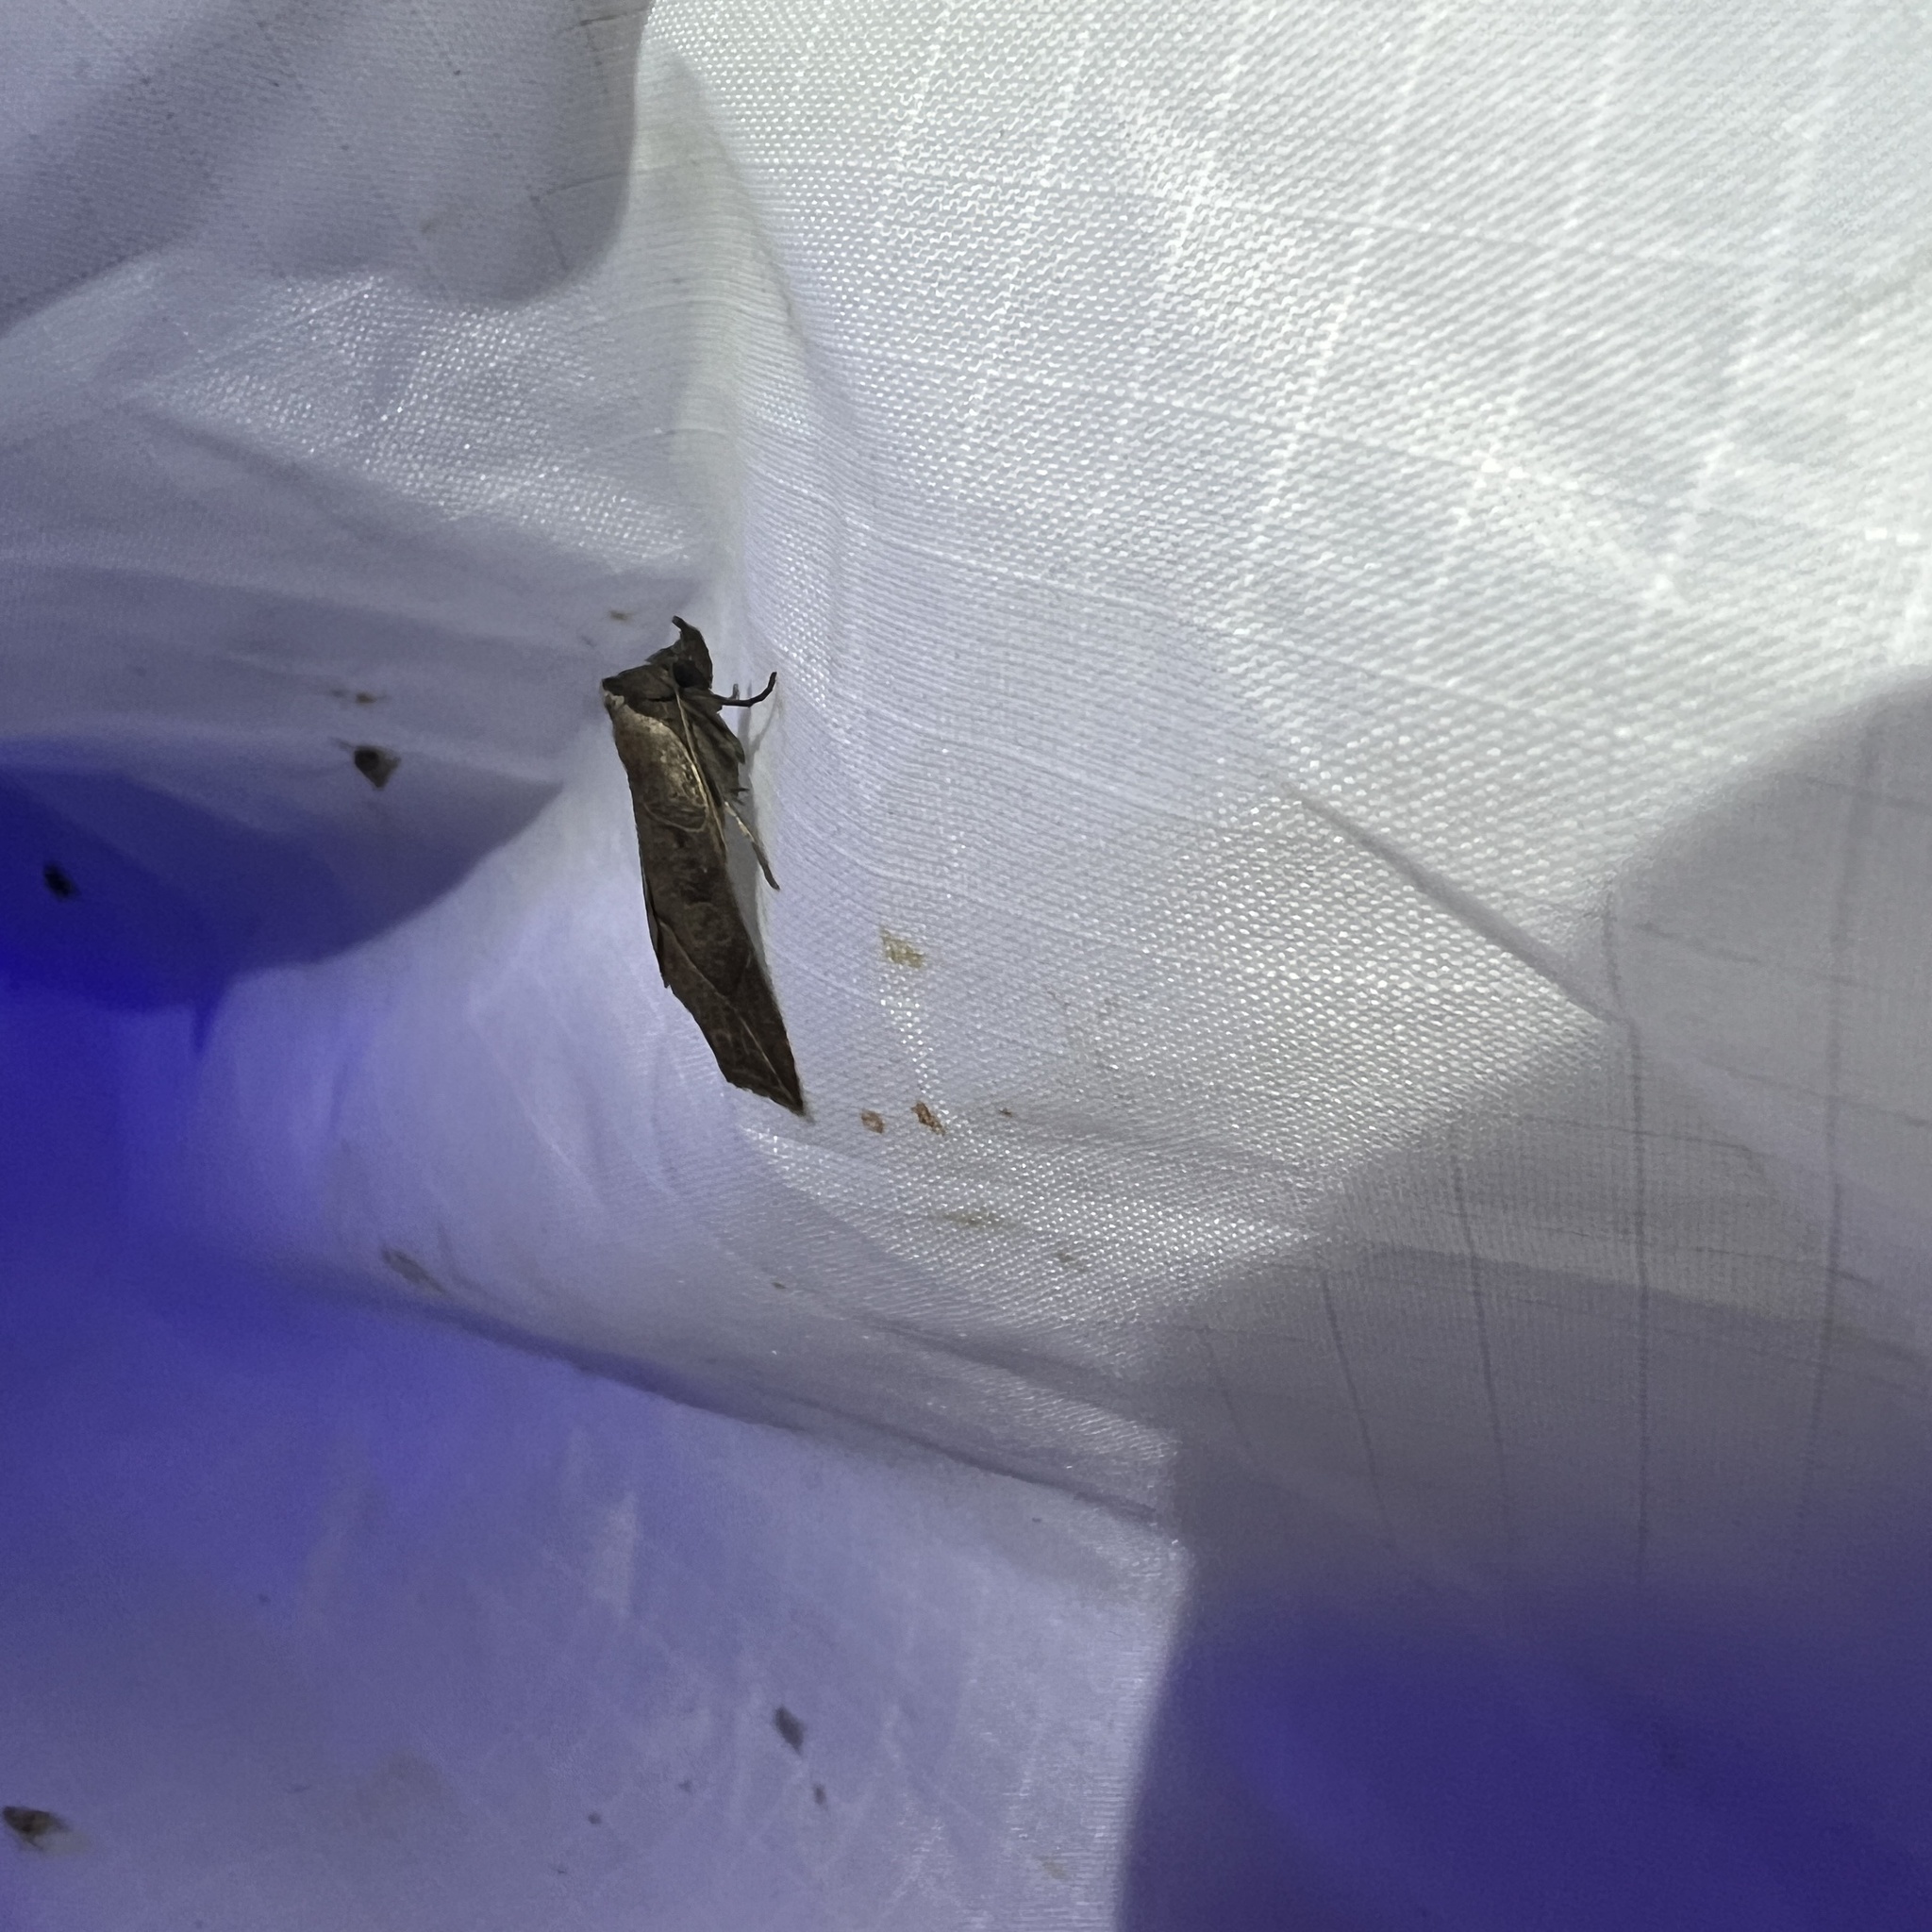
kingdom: Animalia
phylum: Arthropoda
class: Insecta
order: Lepidoptera
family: Erebidae
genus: Isogona
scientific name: Isogona tenuis
